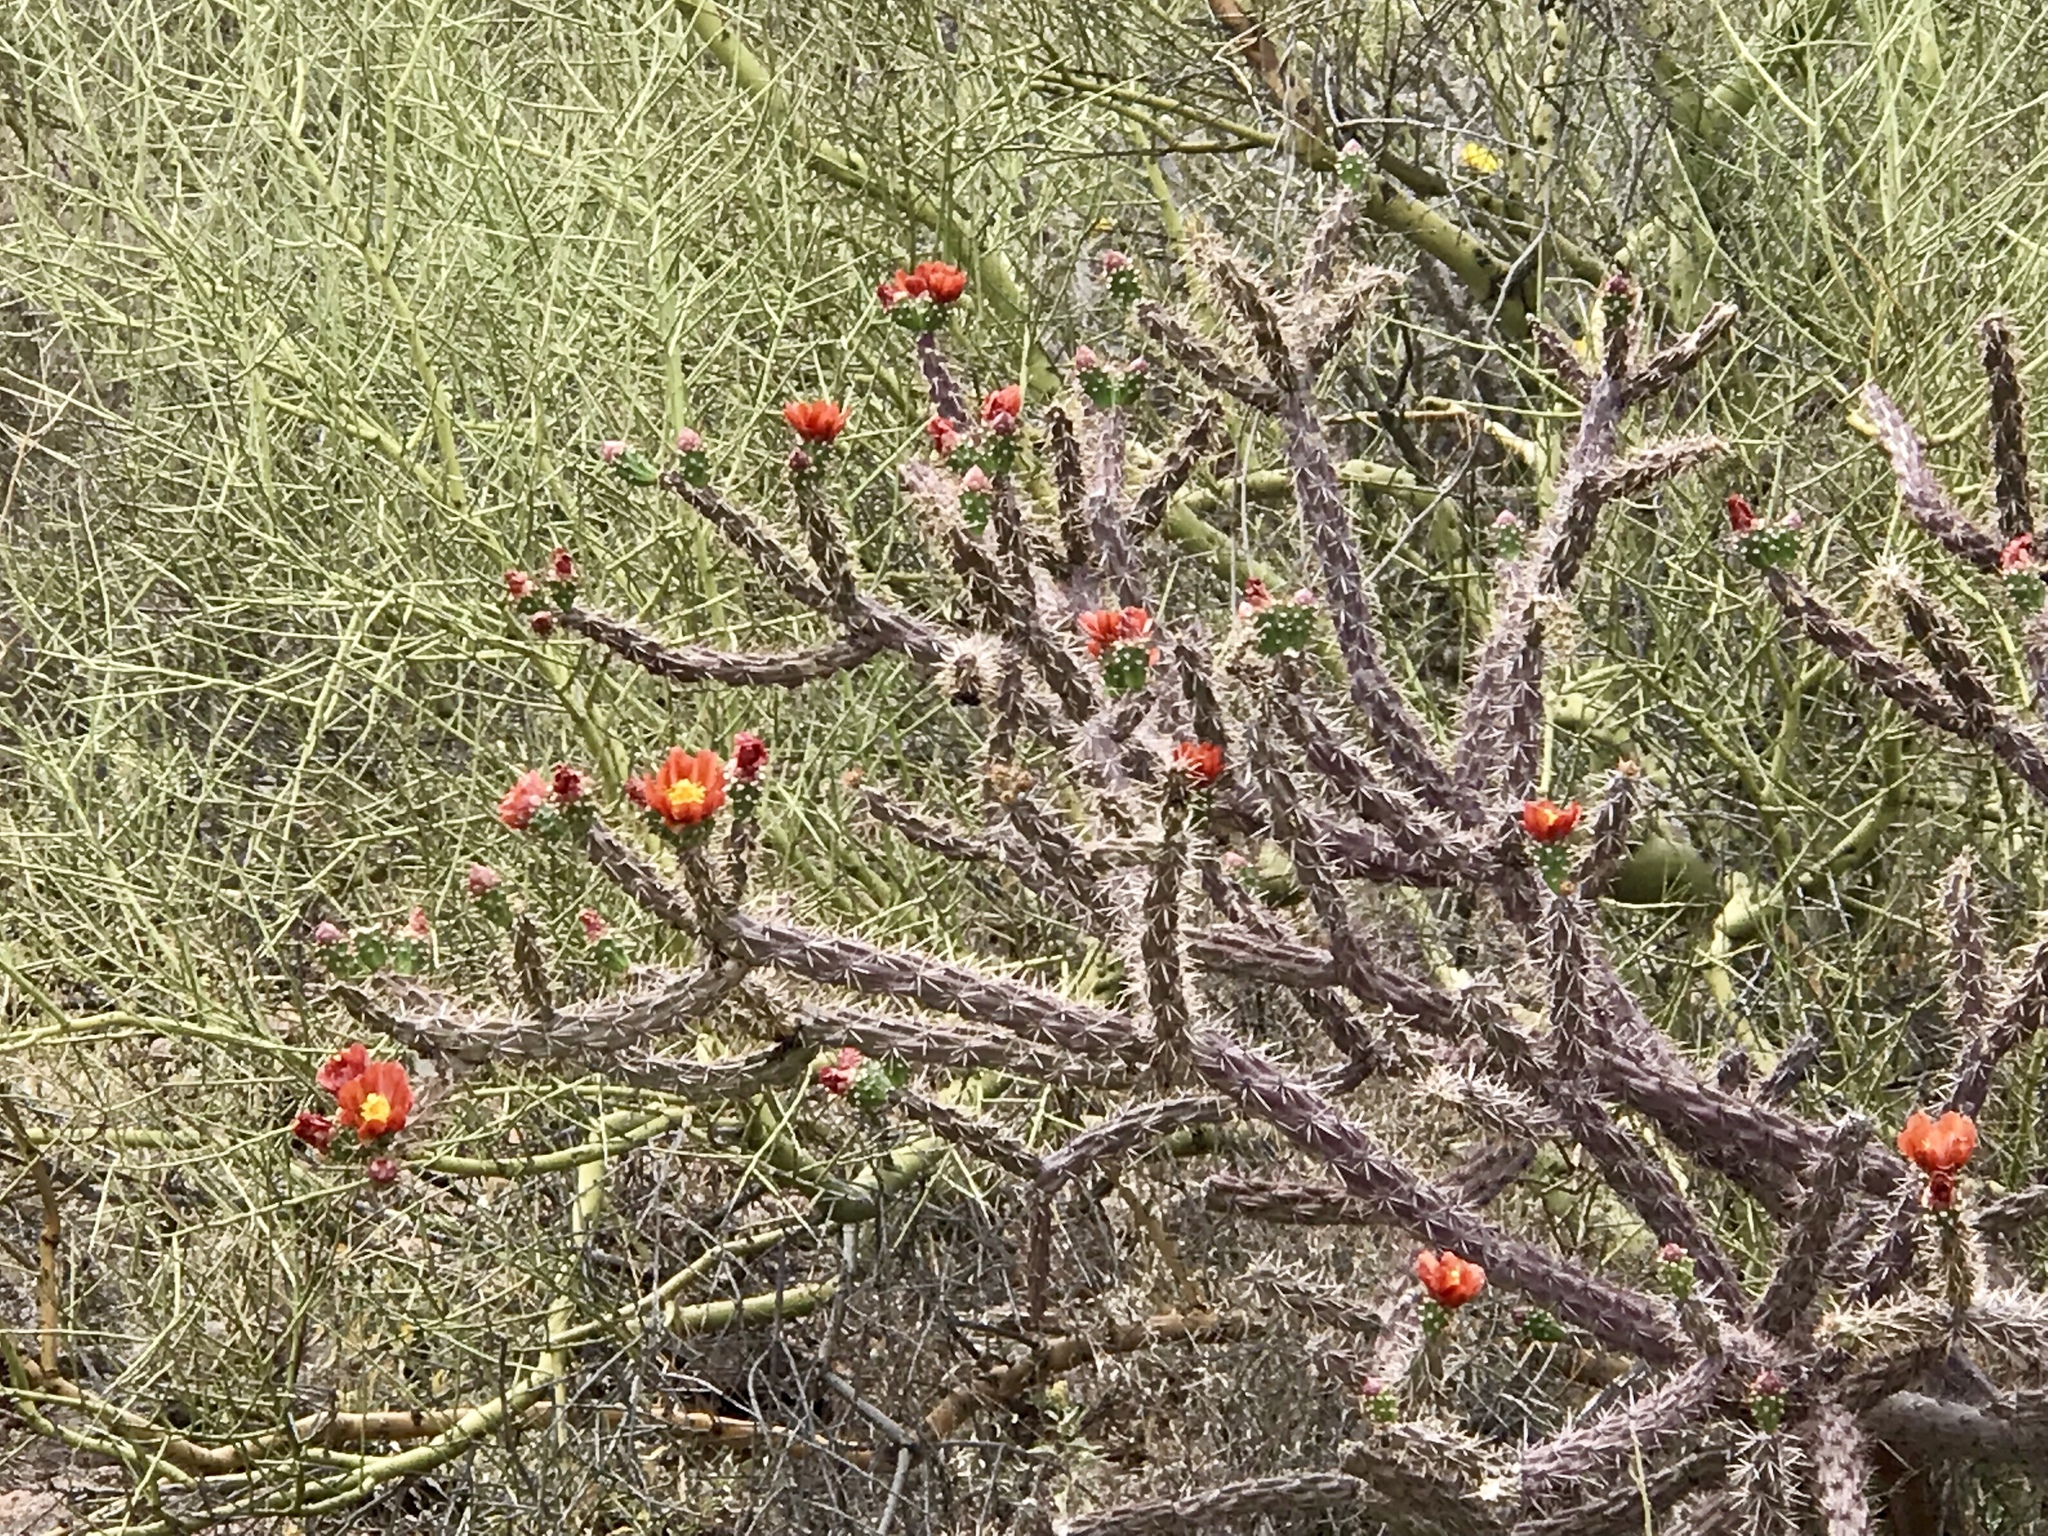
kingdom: Plantae
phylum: Tracheophyta
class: Magnoliopsida
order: Caryophyllales
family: Cactaceae
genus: Cylindropuntia
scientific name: Cylindropuntia thurberi
